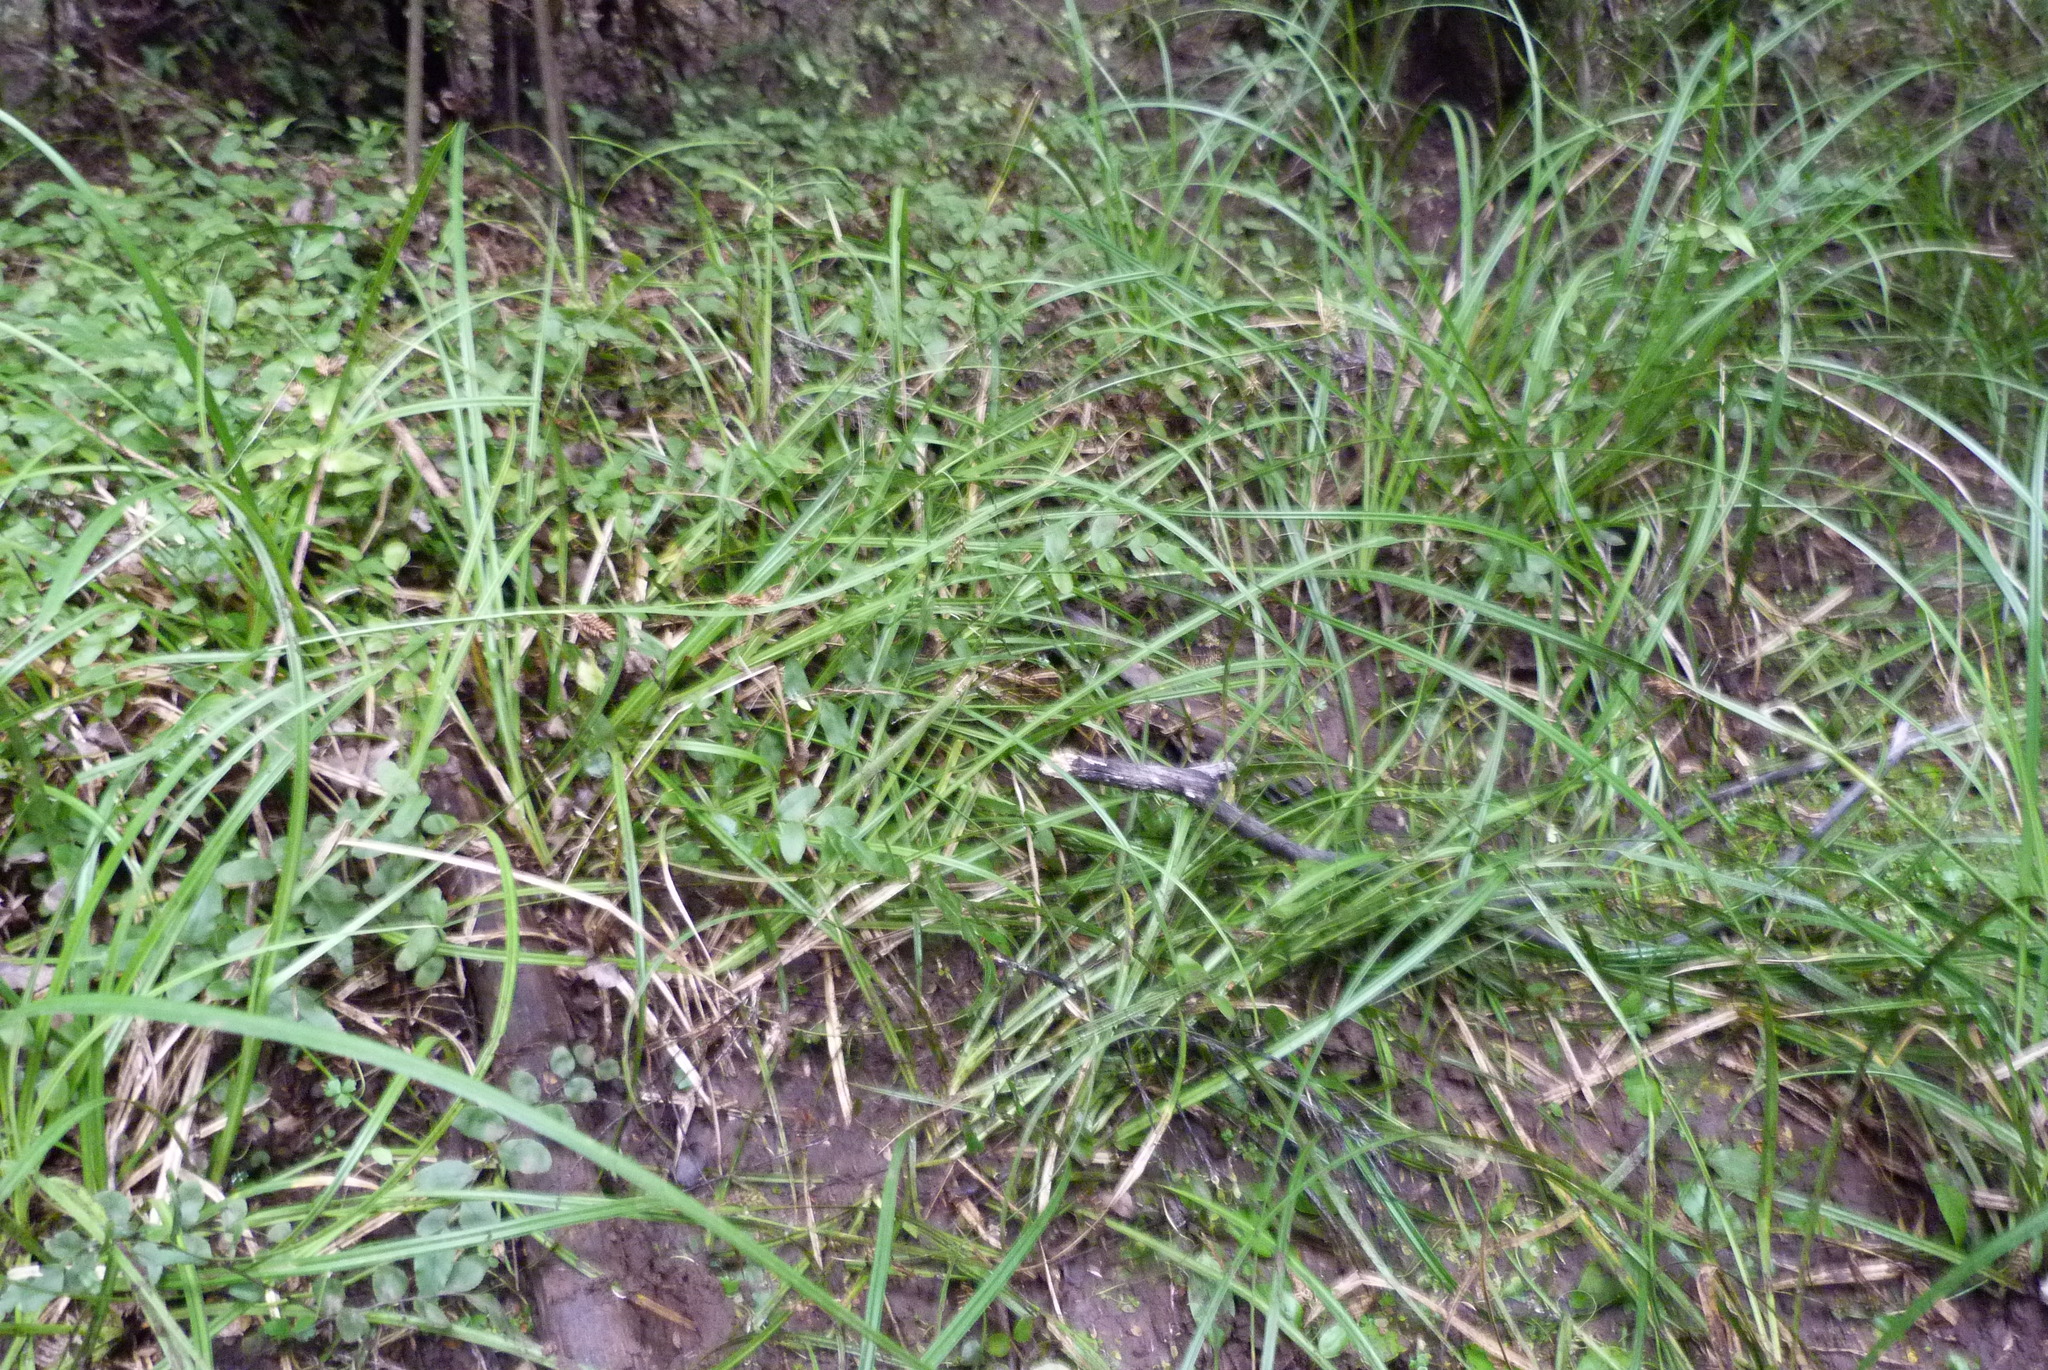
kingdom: Plantae
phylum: Tracheophyta
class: Liliopsida
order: Poales
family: Cyperaceae
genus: Carex
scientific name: Carex dissita
